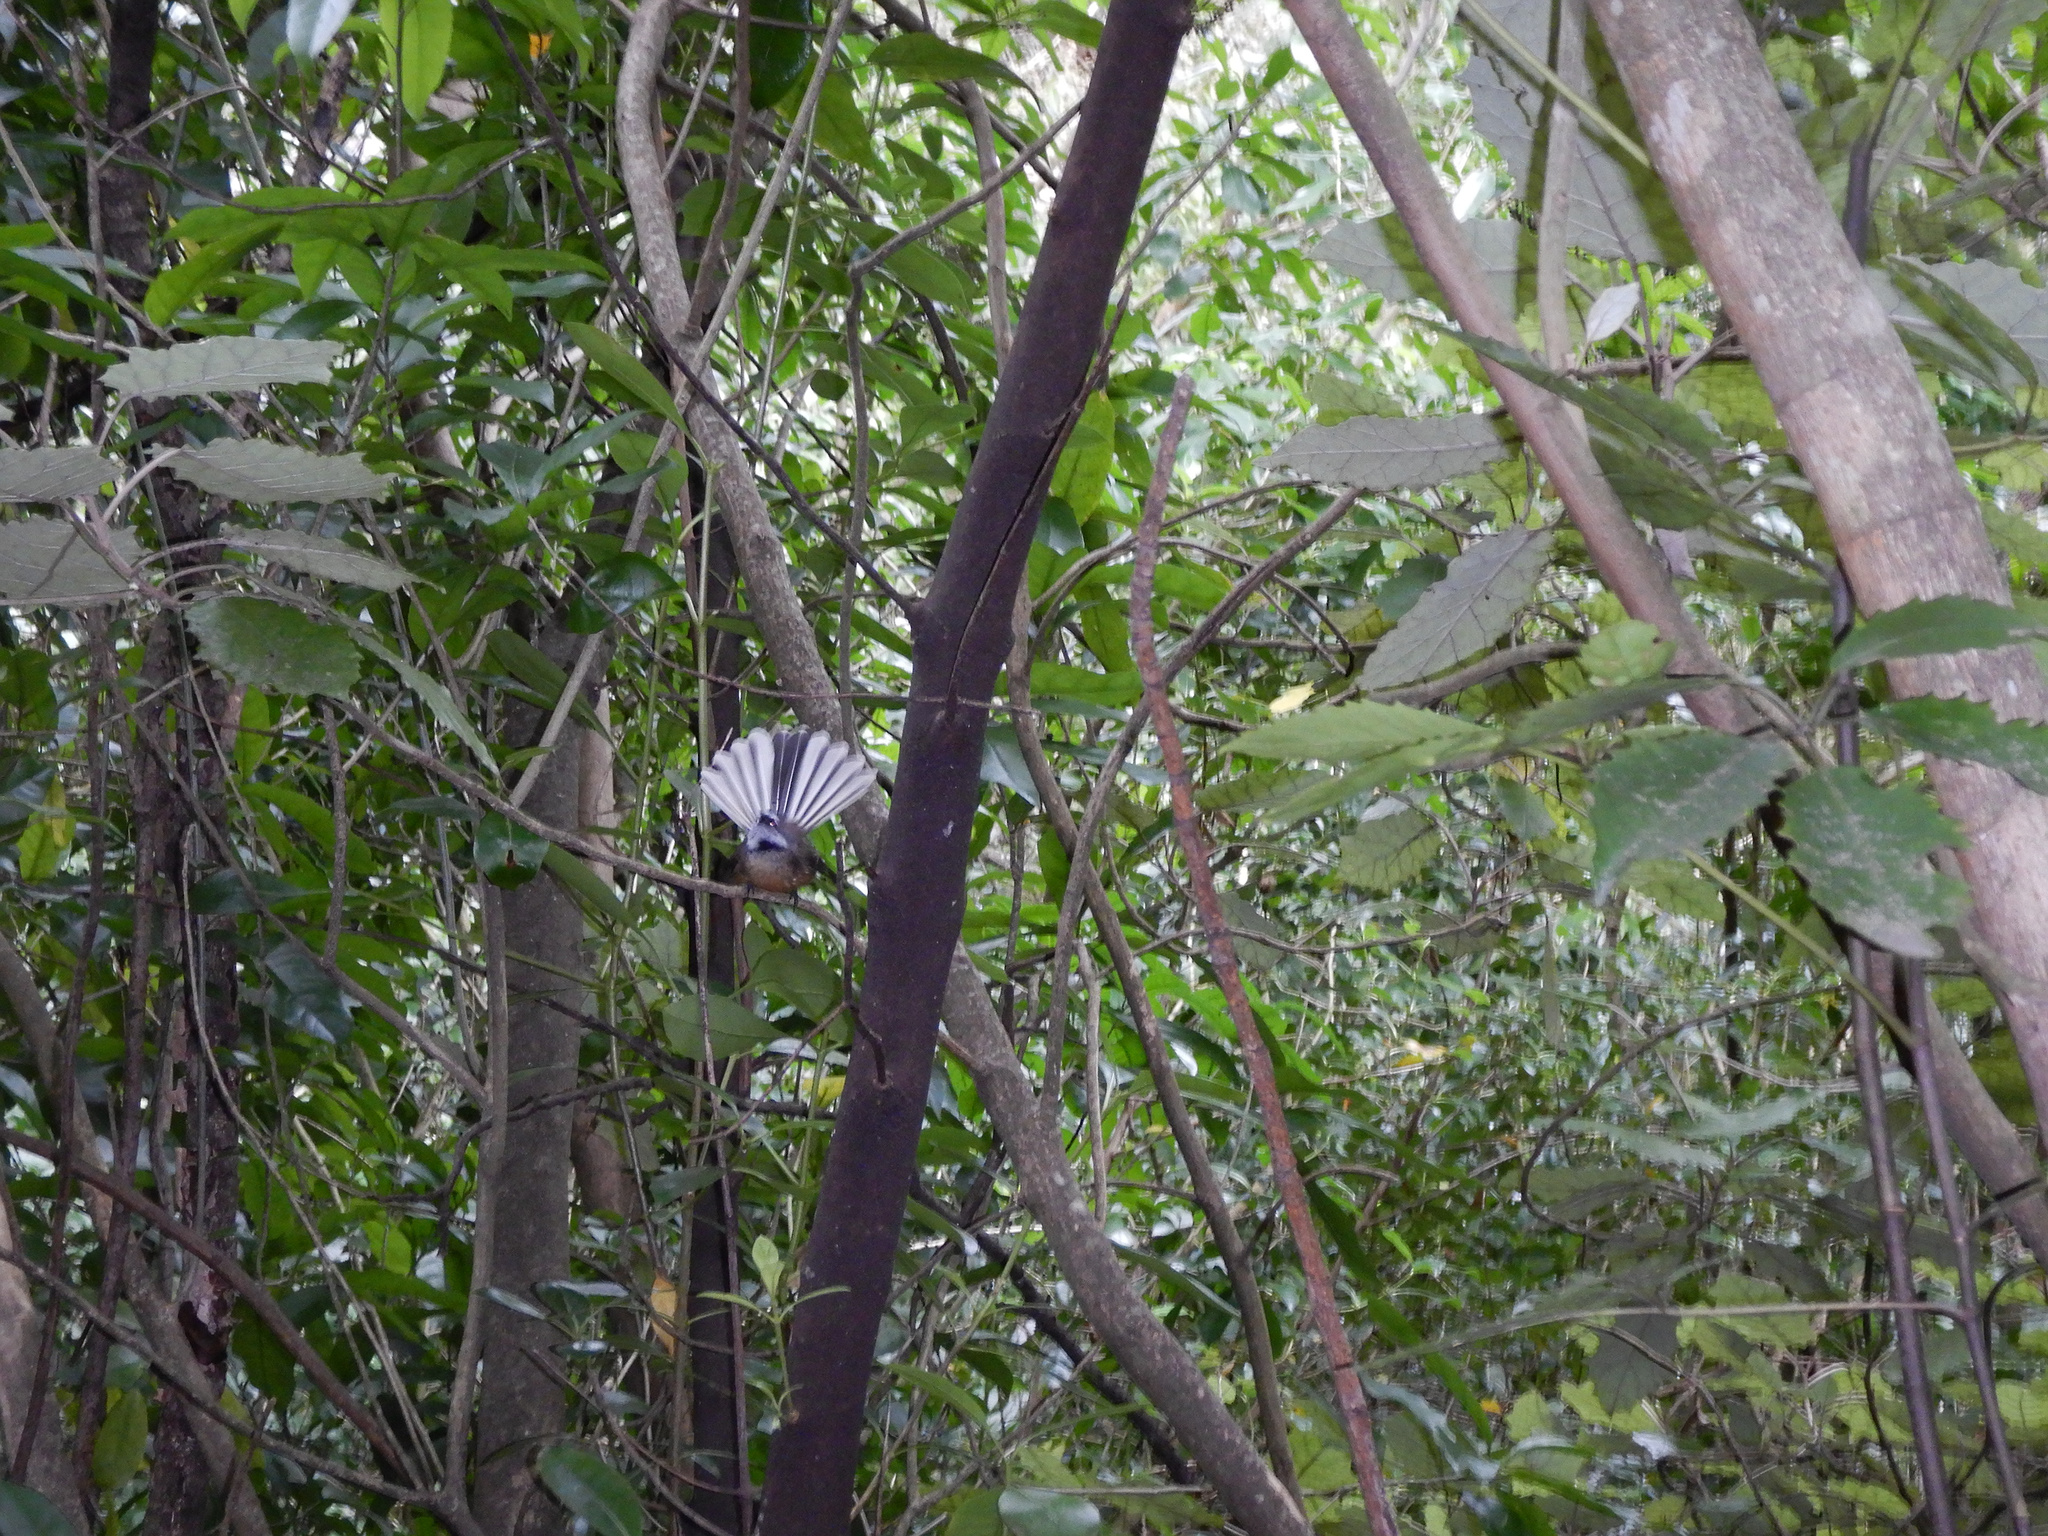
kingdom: Animalia
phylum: Chordata
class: Aves
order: Passeriformes
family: Rhipiduridae
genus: Rhipidura
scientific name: Rhipidura fuliginosa
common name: New zealand fantail
